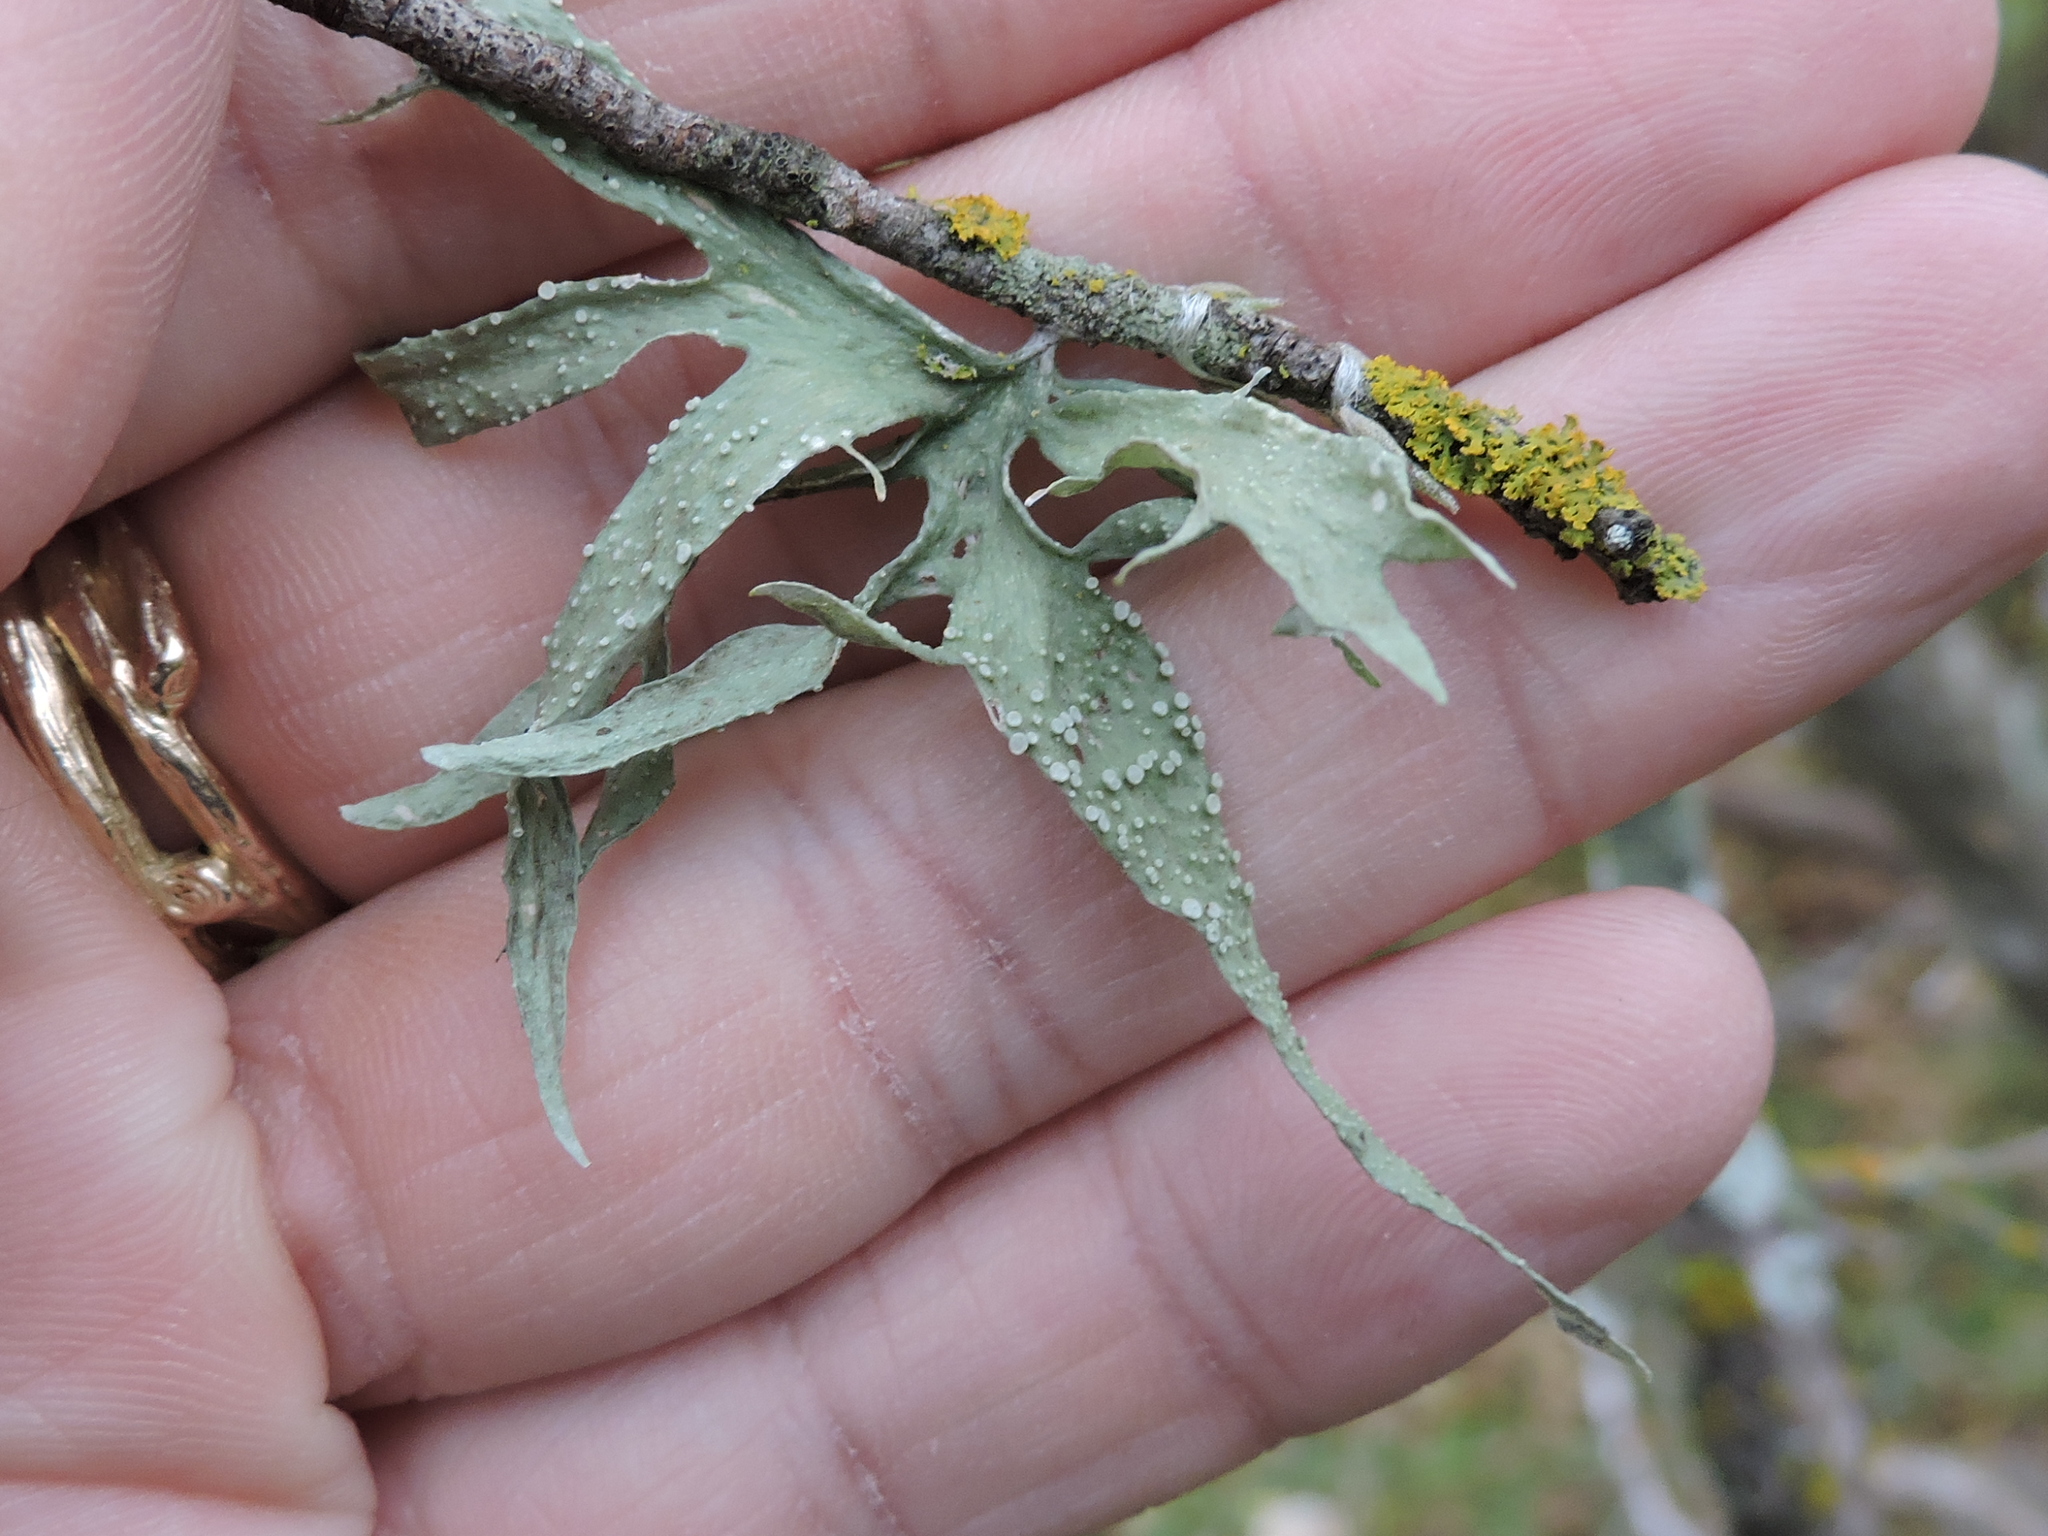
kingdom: Fungi
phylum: Ascomycota
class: Lecanoromycetes
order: Lecanorales
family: Ramalinaceae
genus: Ramalina
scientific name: Ramalina celastri
